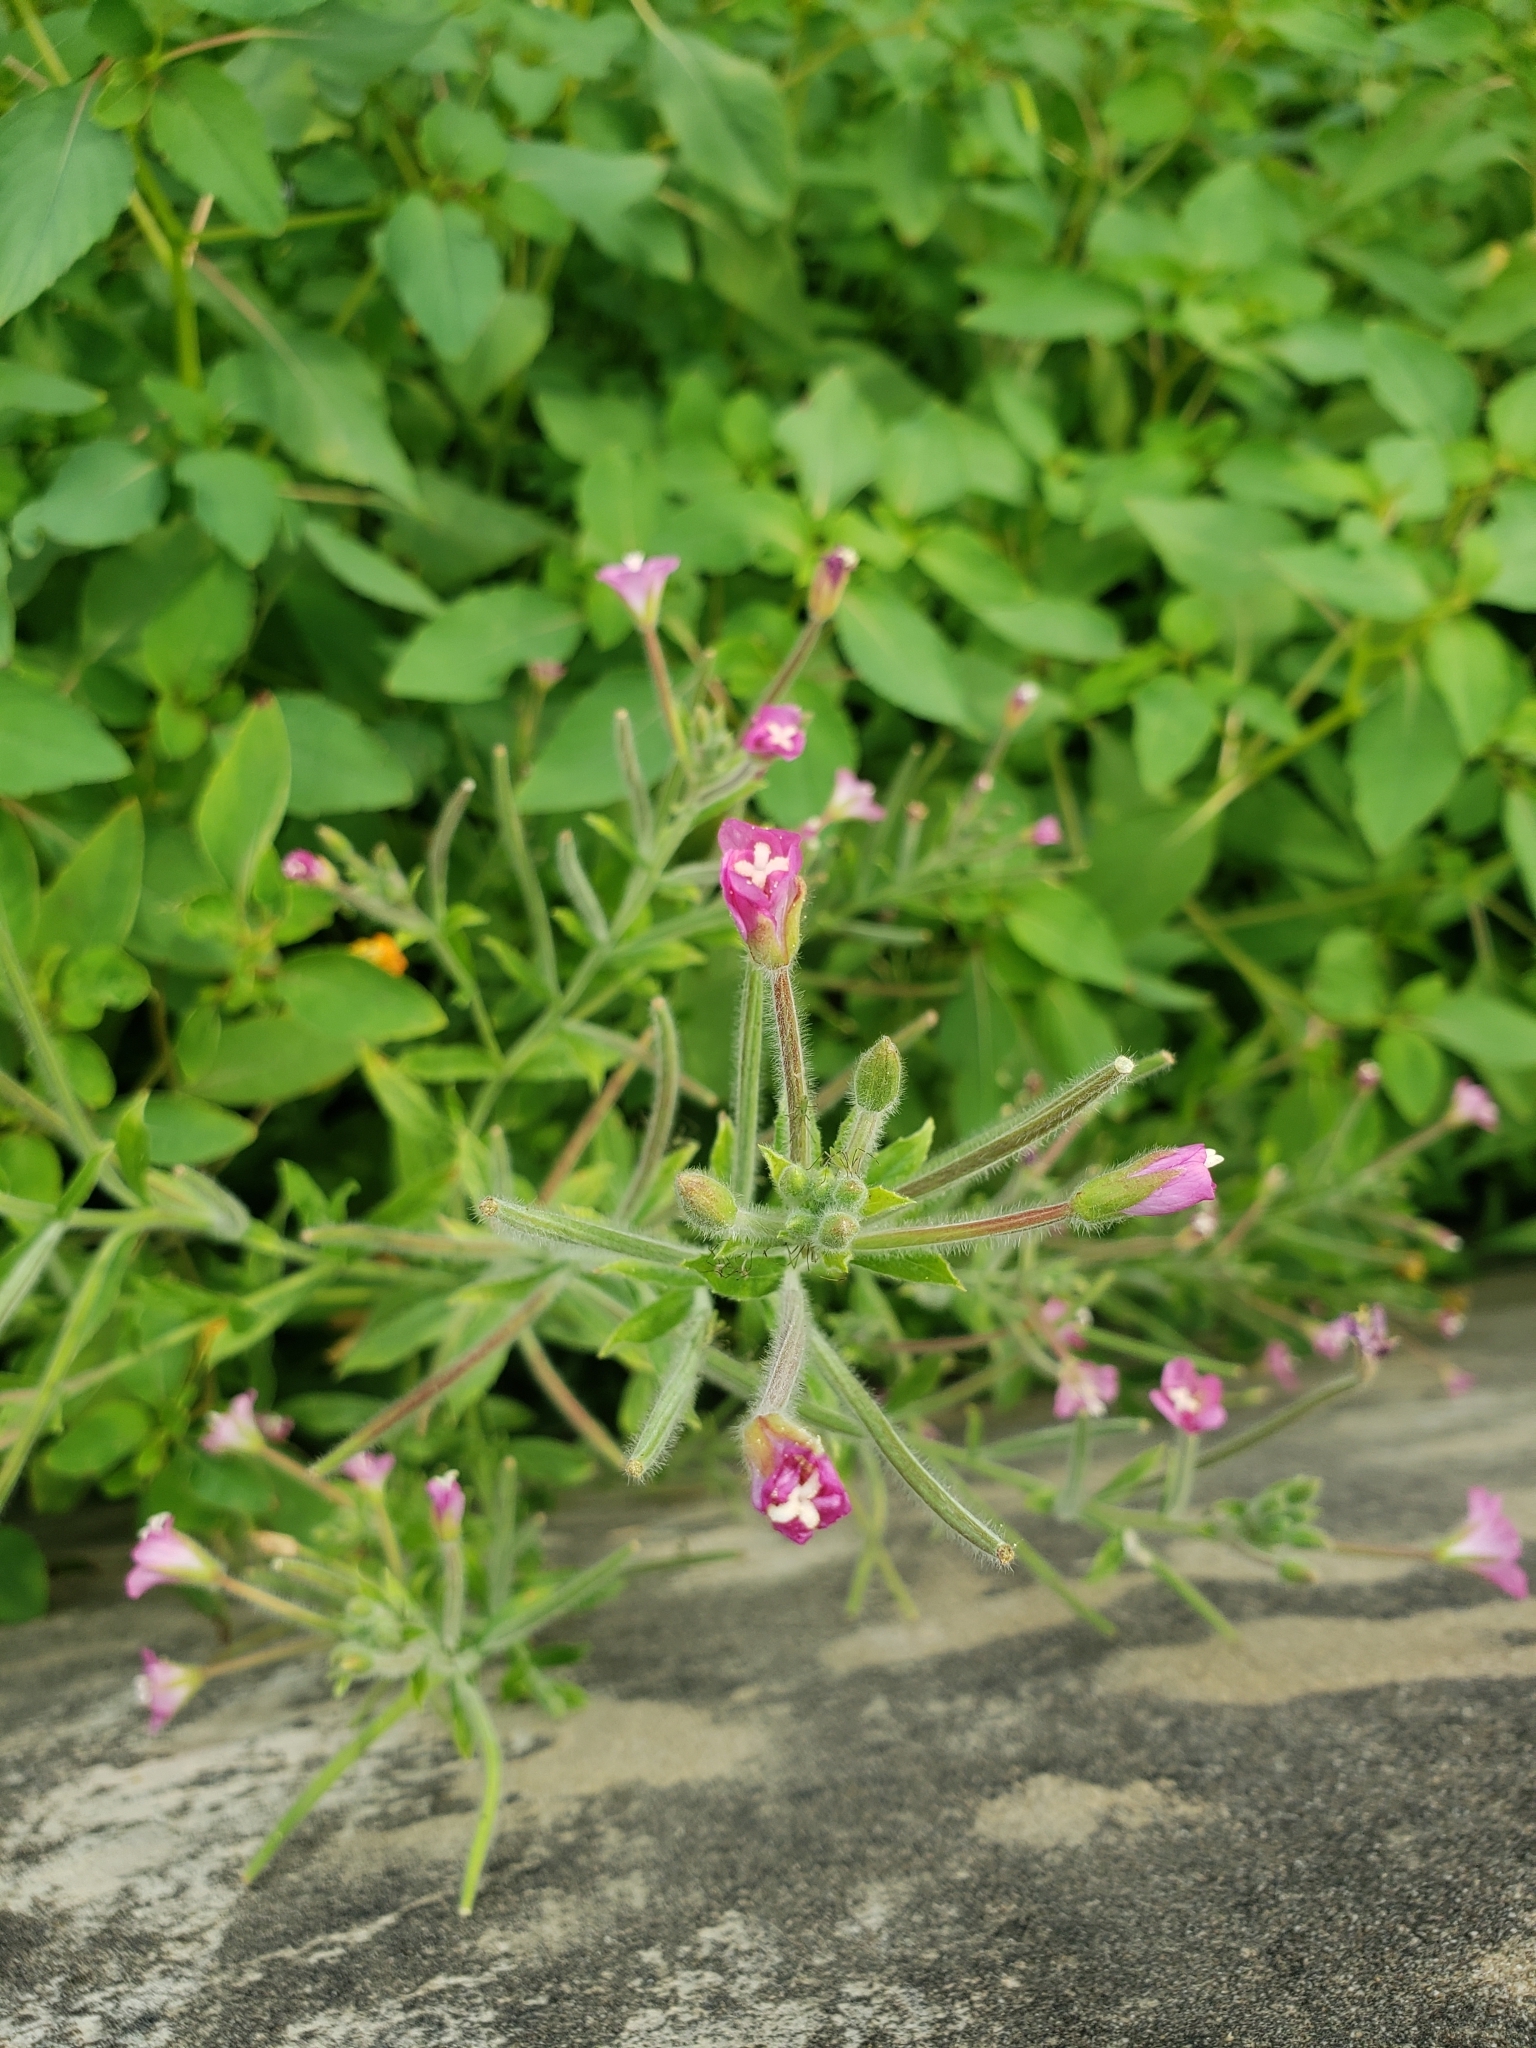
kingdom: Plantae
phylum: Tracheophyta
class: Magnoliopsida
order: Myrtales
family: Onagraceae
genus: Epilobium
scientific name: Epilobium hirsutum
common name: Great willowherb
